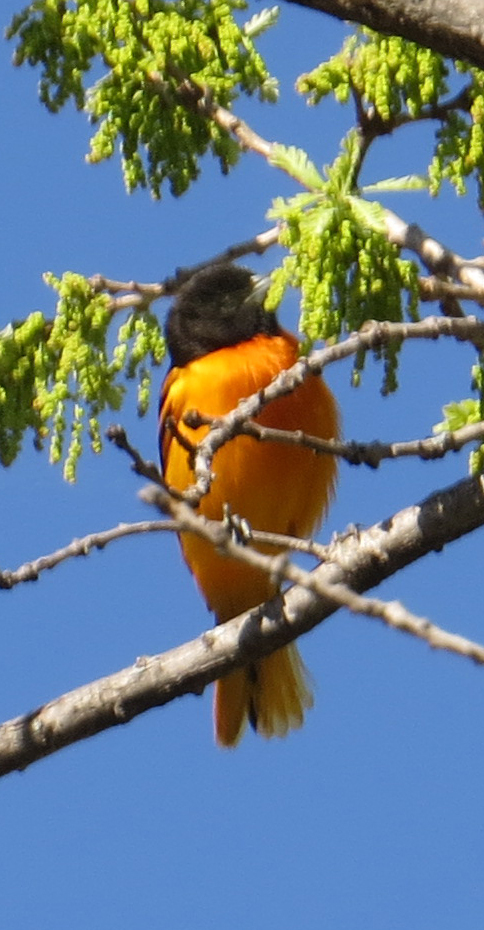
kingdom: Animalia
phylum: Chordata
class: Aves
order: Passeriformes
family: Icteridae
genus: Icterus
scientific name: Icterus galbula
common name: Baltimore oriole
